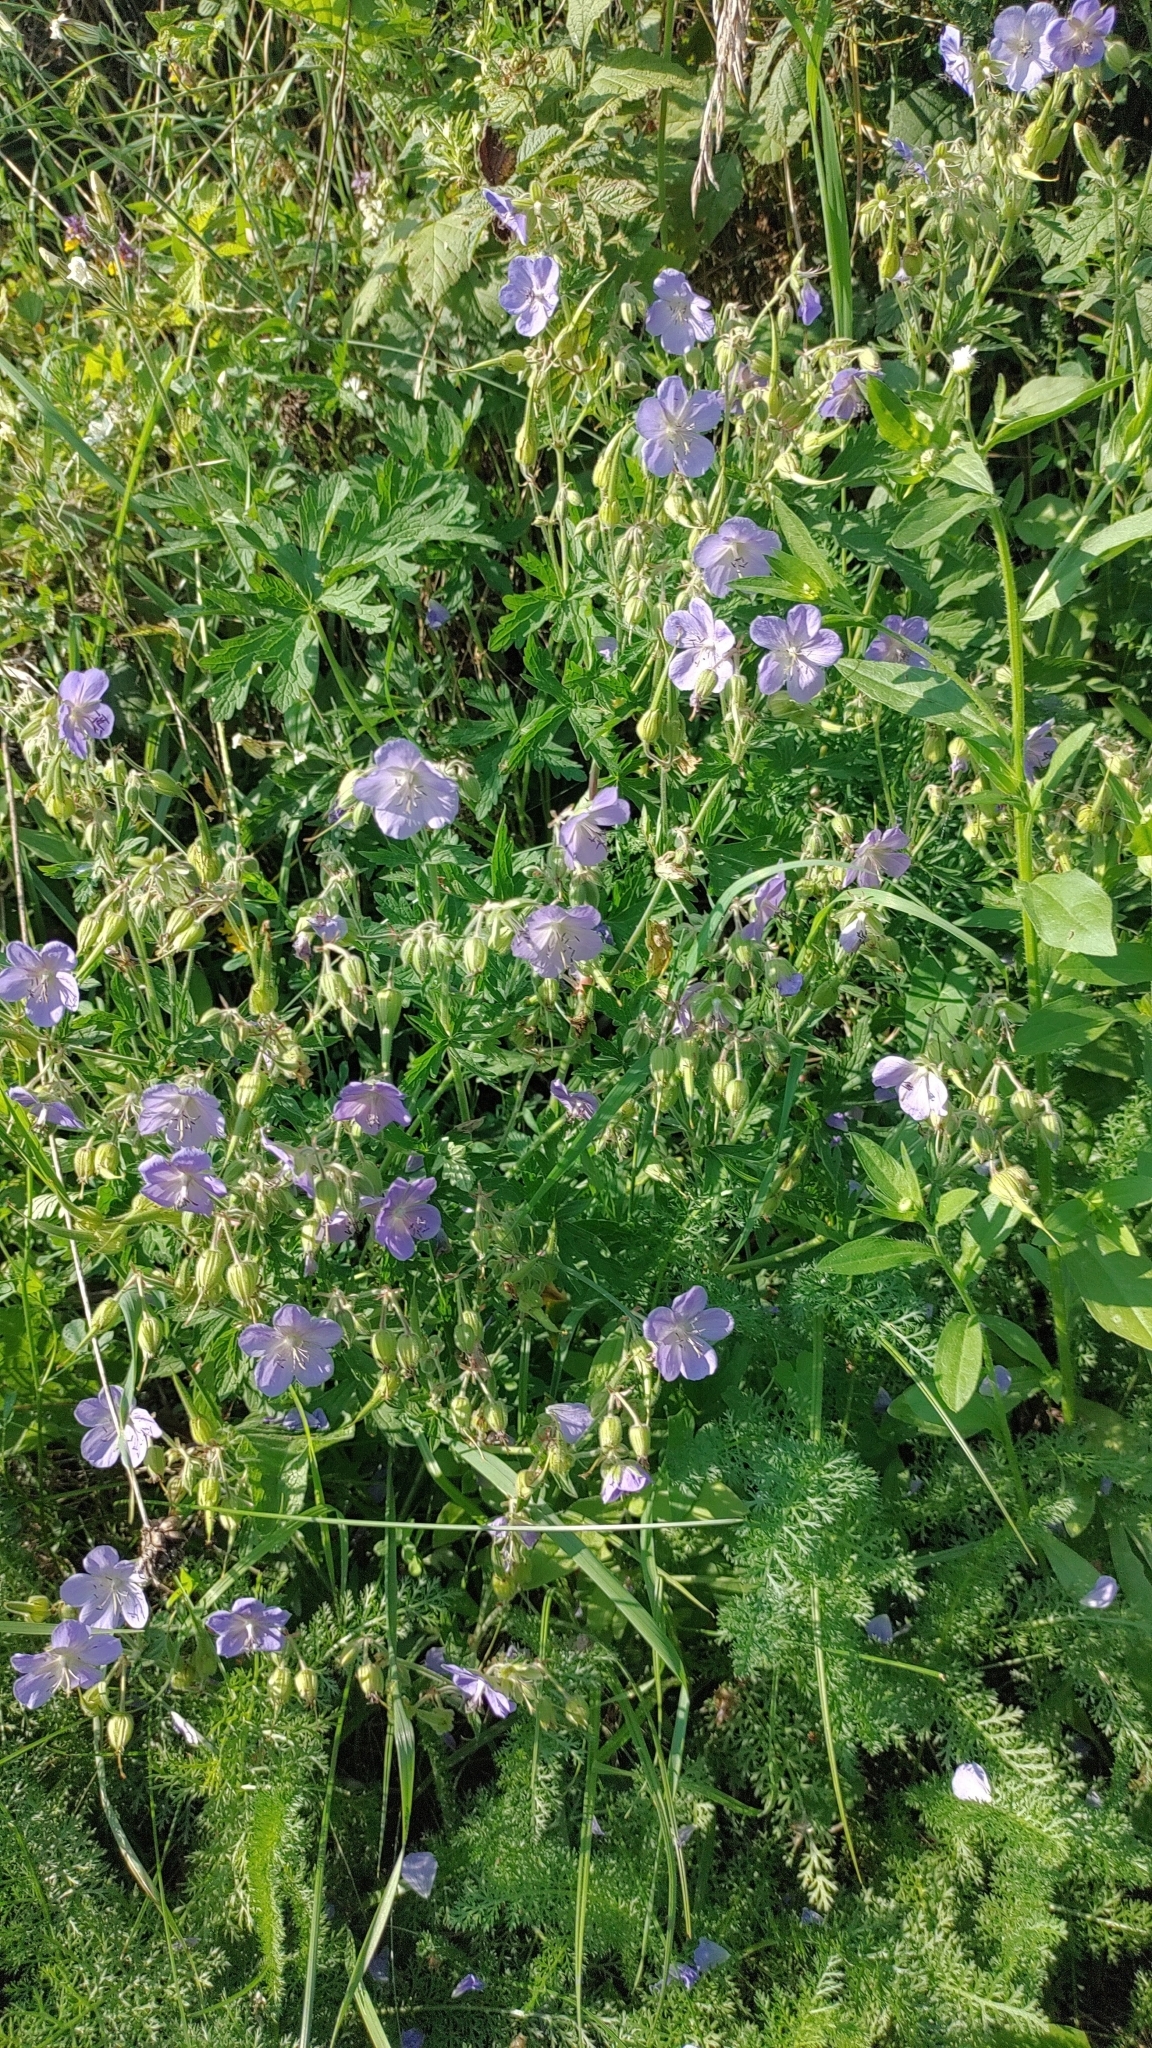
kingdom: Plantae
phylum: Tracheophyta
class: Magnoliopsida
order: Geraniales
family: Geraniaceae
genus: Geranium
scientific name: Geranium pratense
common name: Meadow crane's-bill
